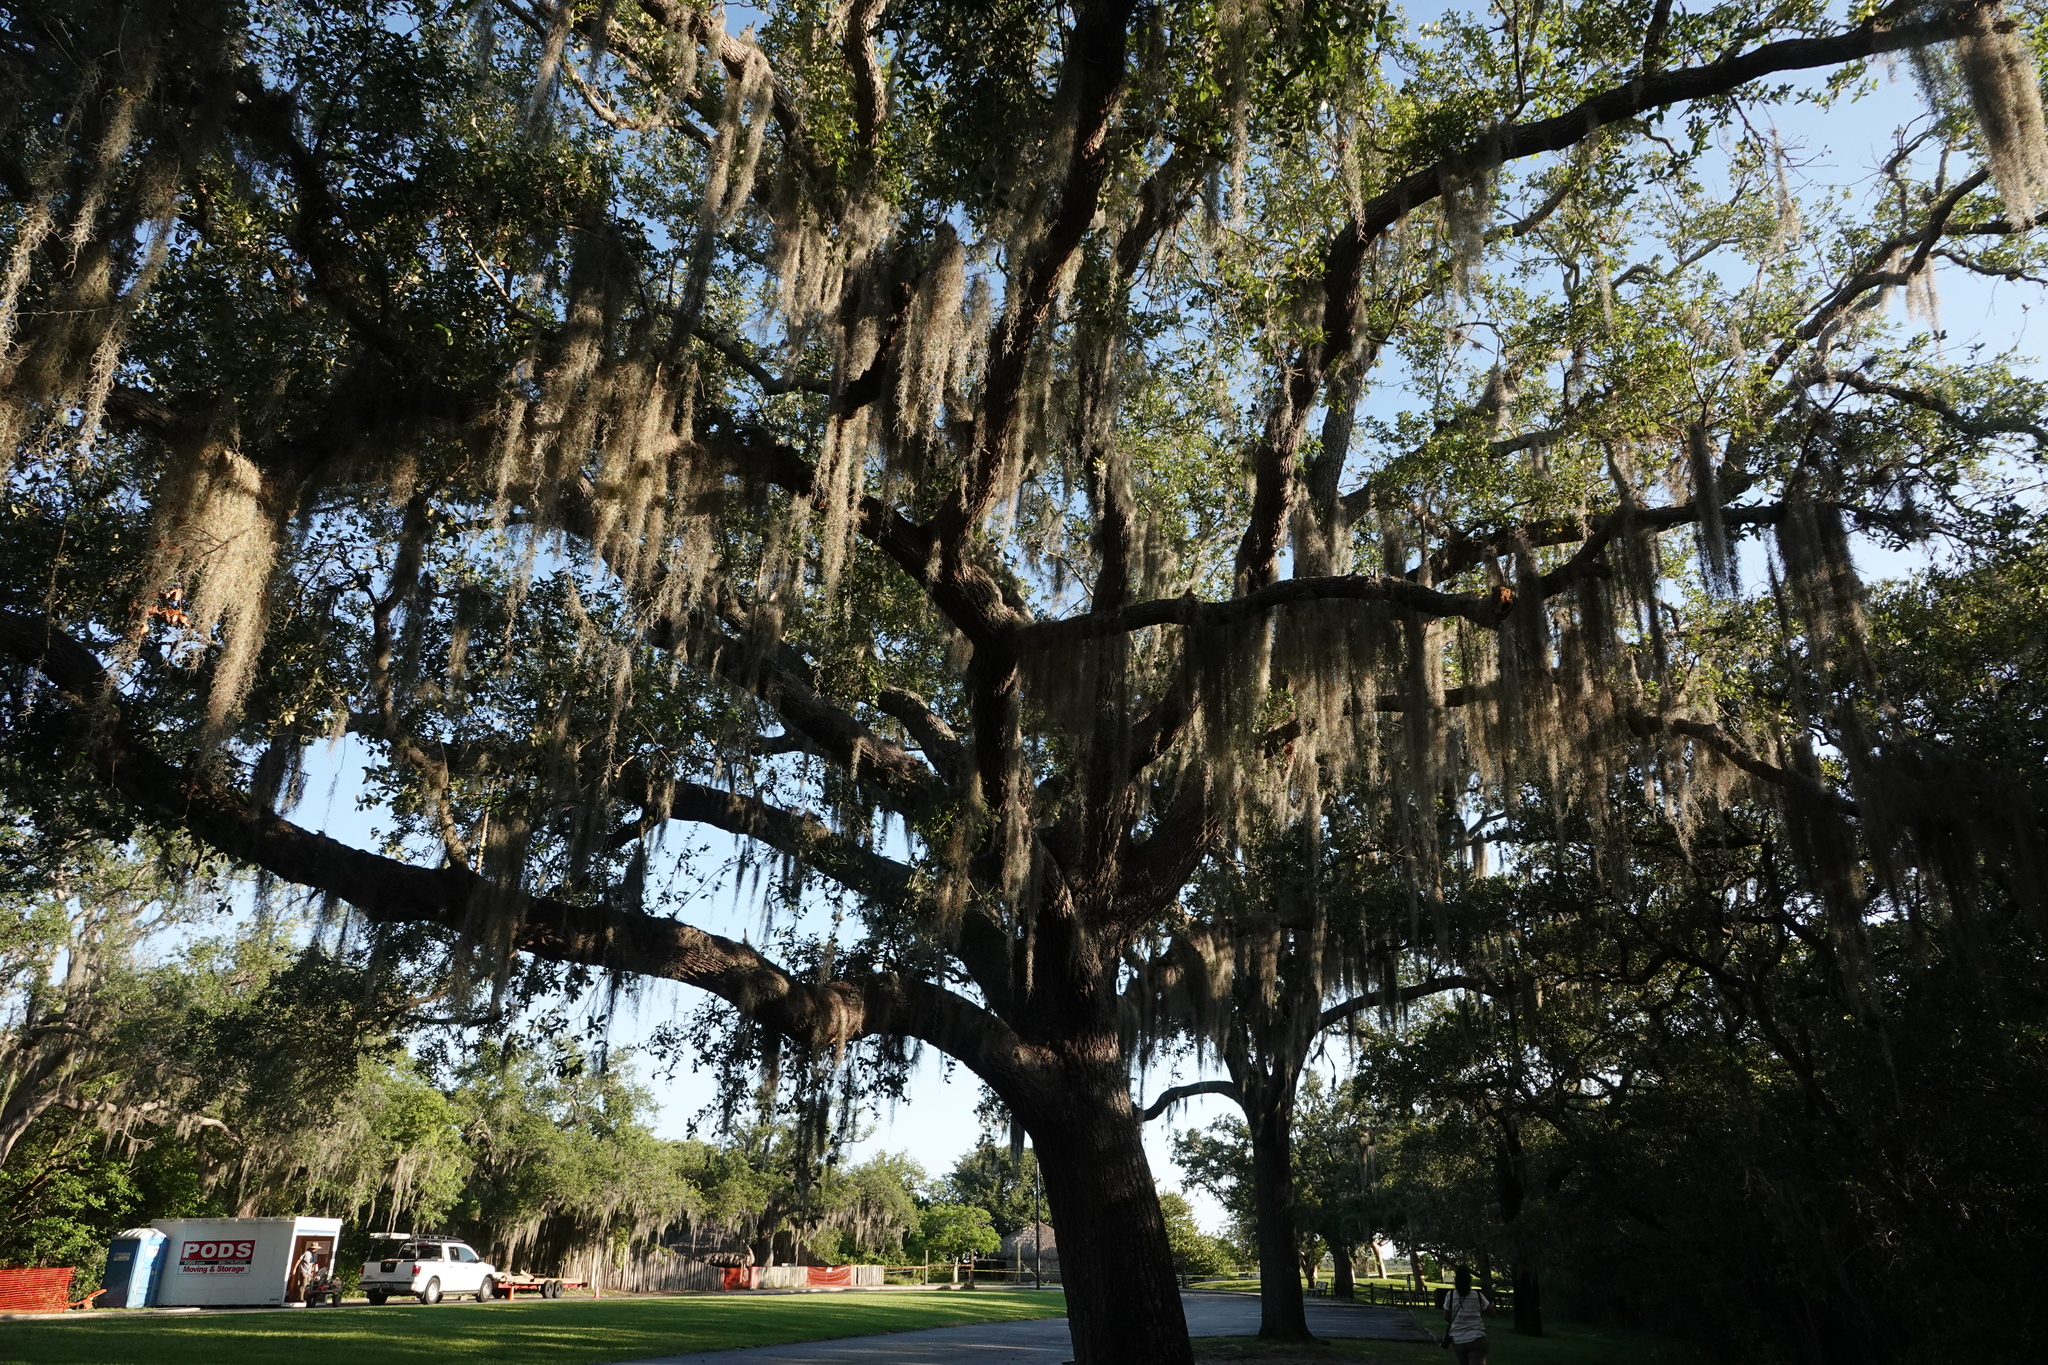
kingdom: Plantae
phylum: Tracheophyta
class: Magnoliopsida
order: Fagales
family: Fagaceae
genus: Quercus
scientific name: Quercus virginiana
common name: Southern live oak
